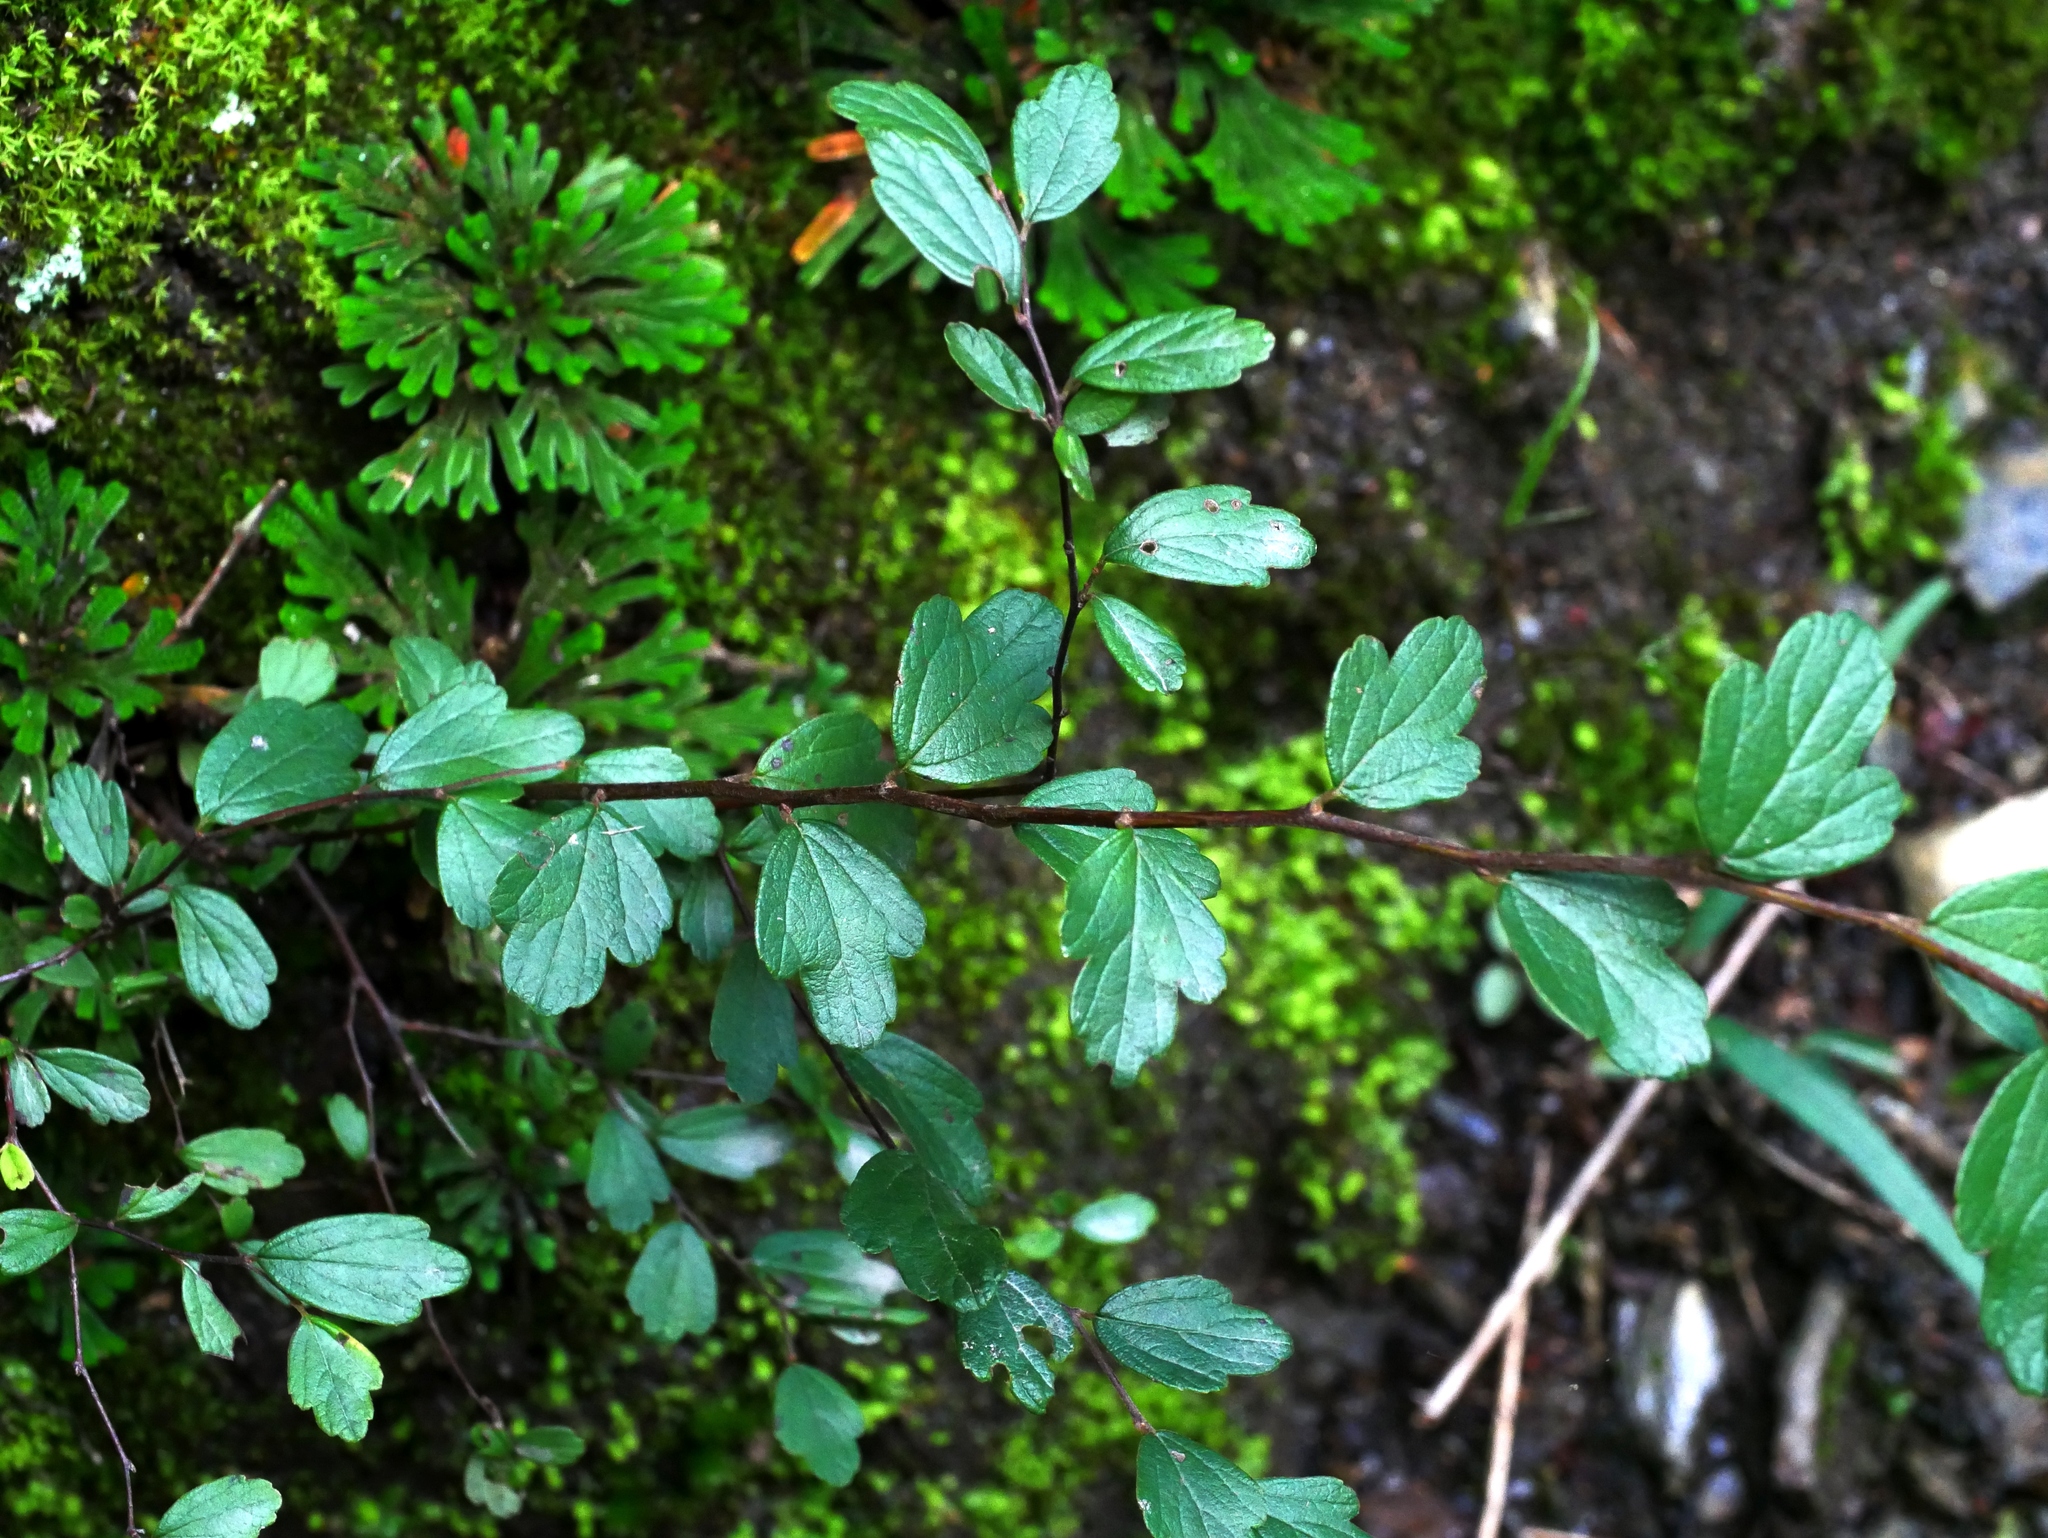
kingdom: Plantae
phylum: Tracheophyta
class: Magnoliopsida
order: Rosales
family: Rosaceae
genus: Spiraea
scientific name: Spiraea tatakaensis
